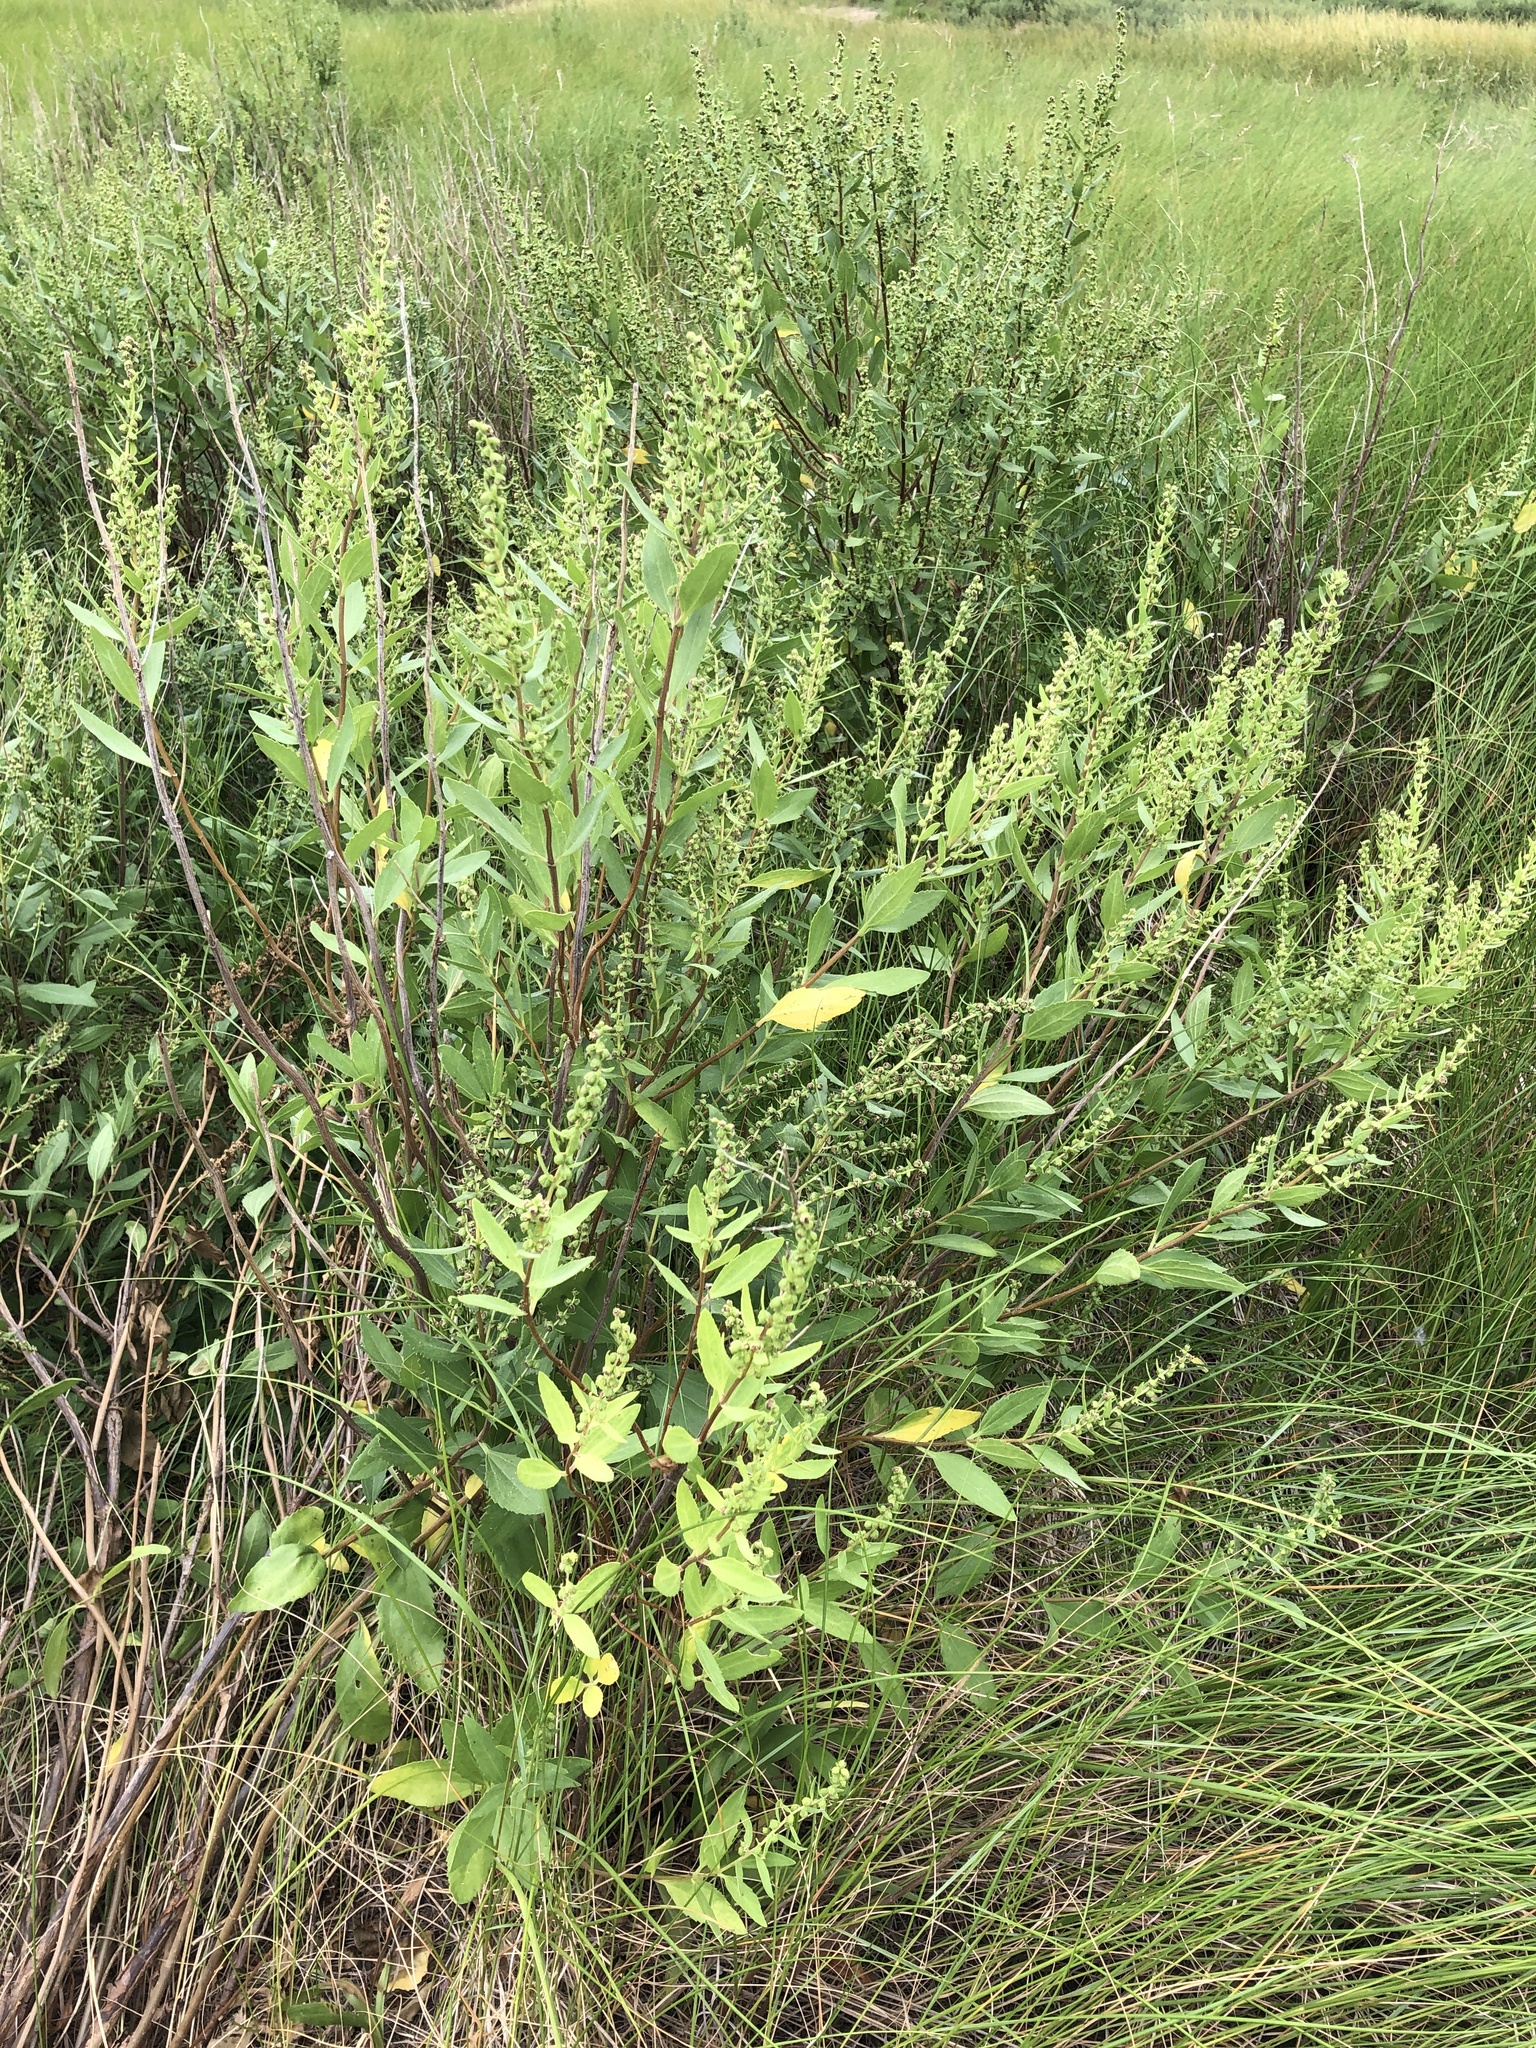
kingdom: Plantae
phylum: Tracheophyta
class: Magnoliopsida
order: Asterales
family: Asteraceae
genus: Iva
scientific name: Iva frutescens
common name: Big-leaved marsh-elder
